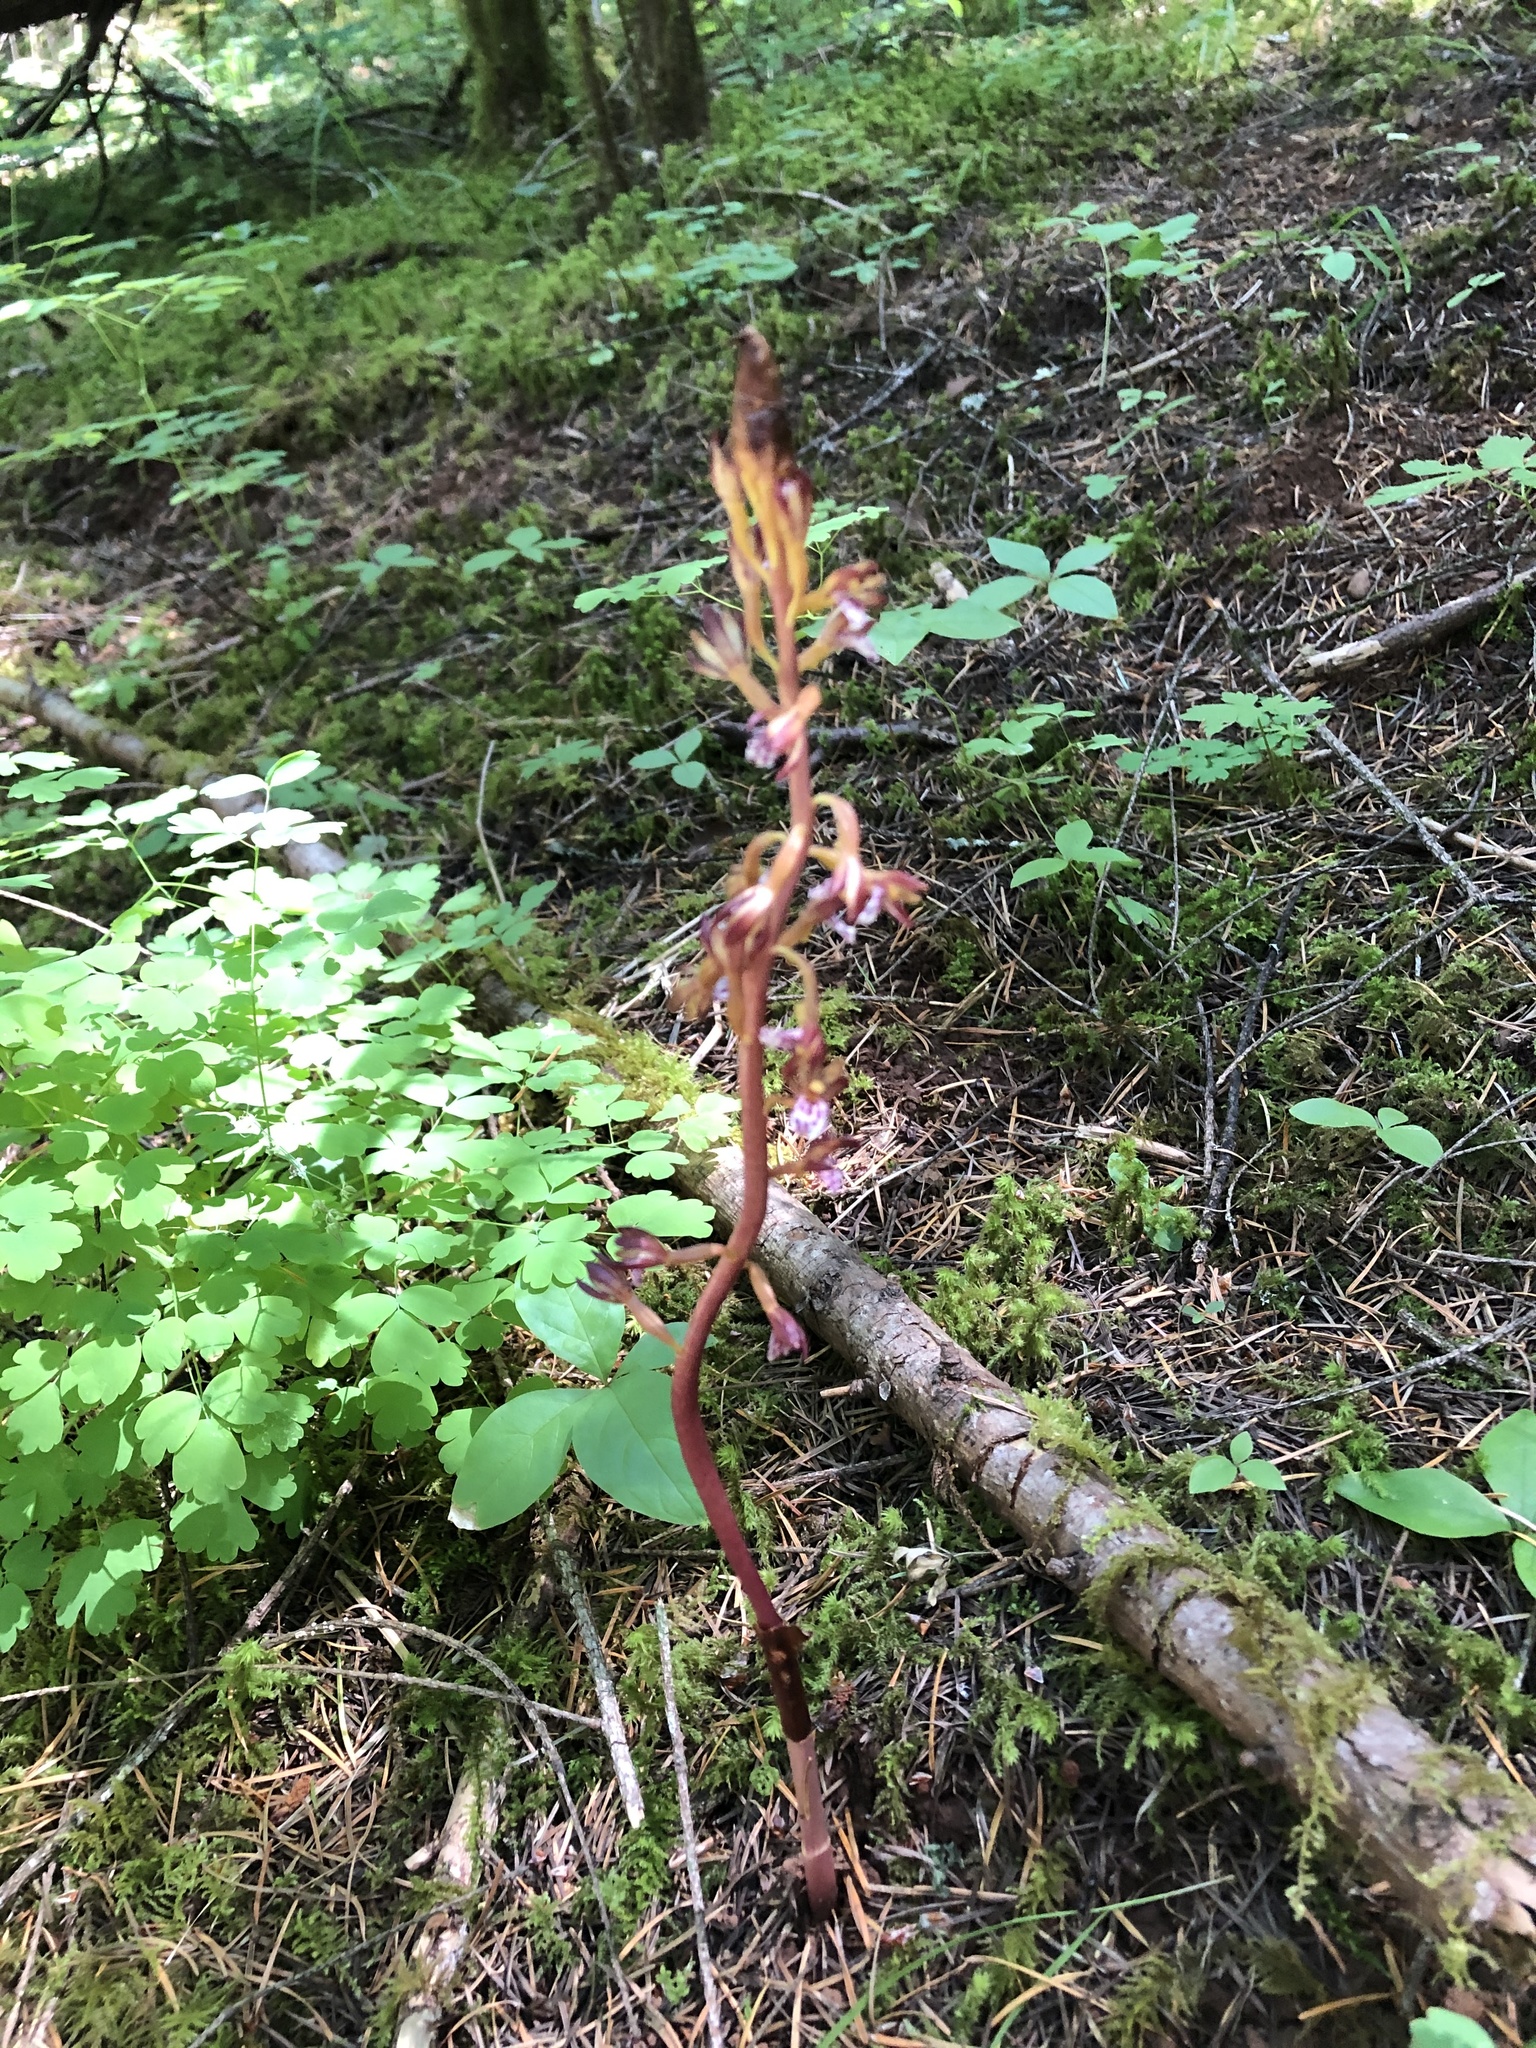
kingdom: Plantae
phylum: Tracheophyta
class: Liliopsida
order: Asparagales
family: Orchidaceae
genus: Corallorhiza
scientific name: Corallorhiza maculata
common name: Spotted coralroot
